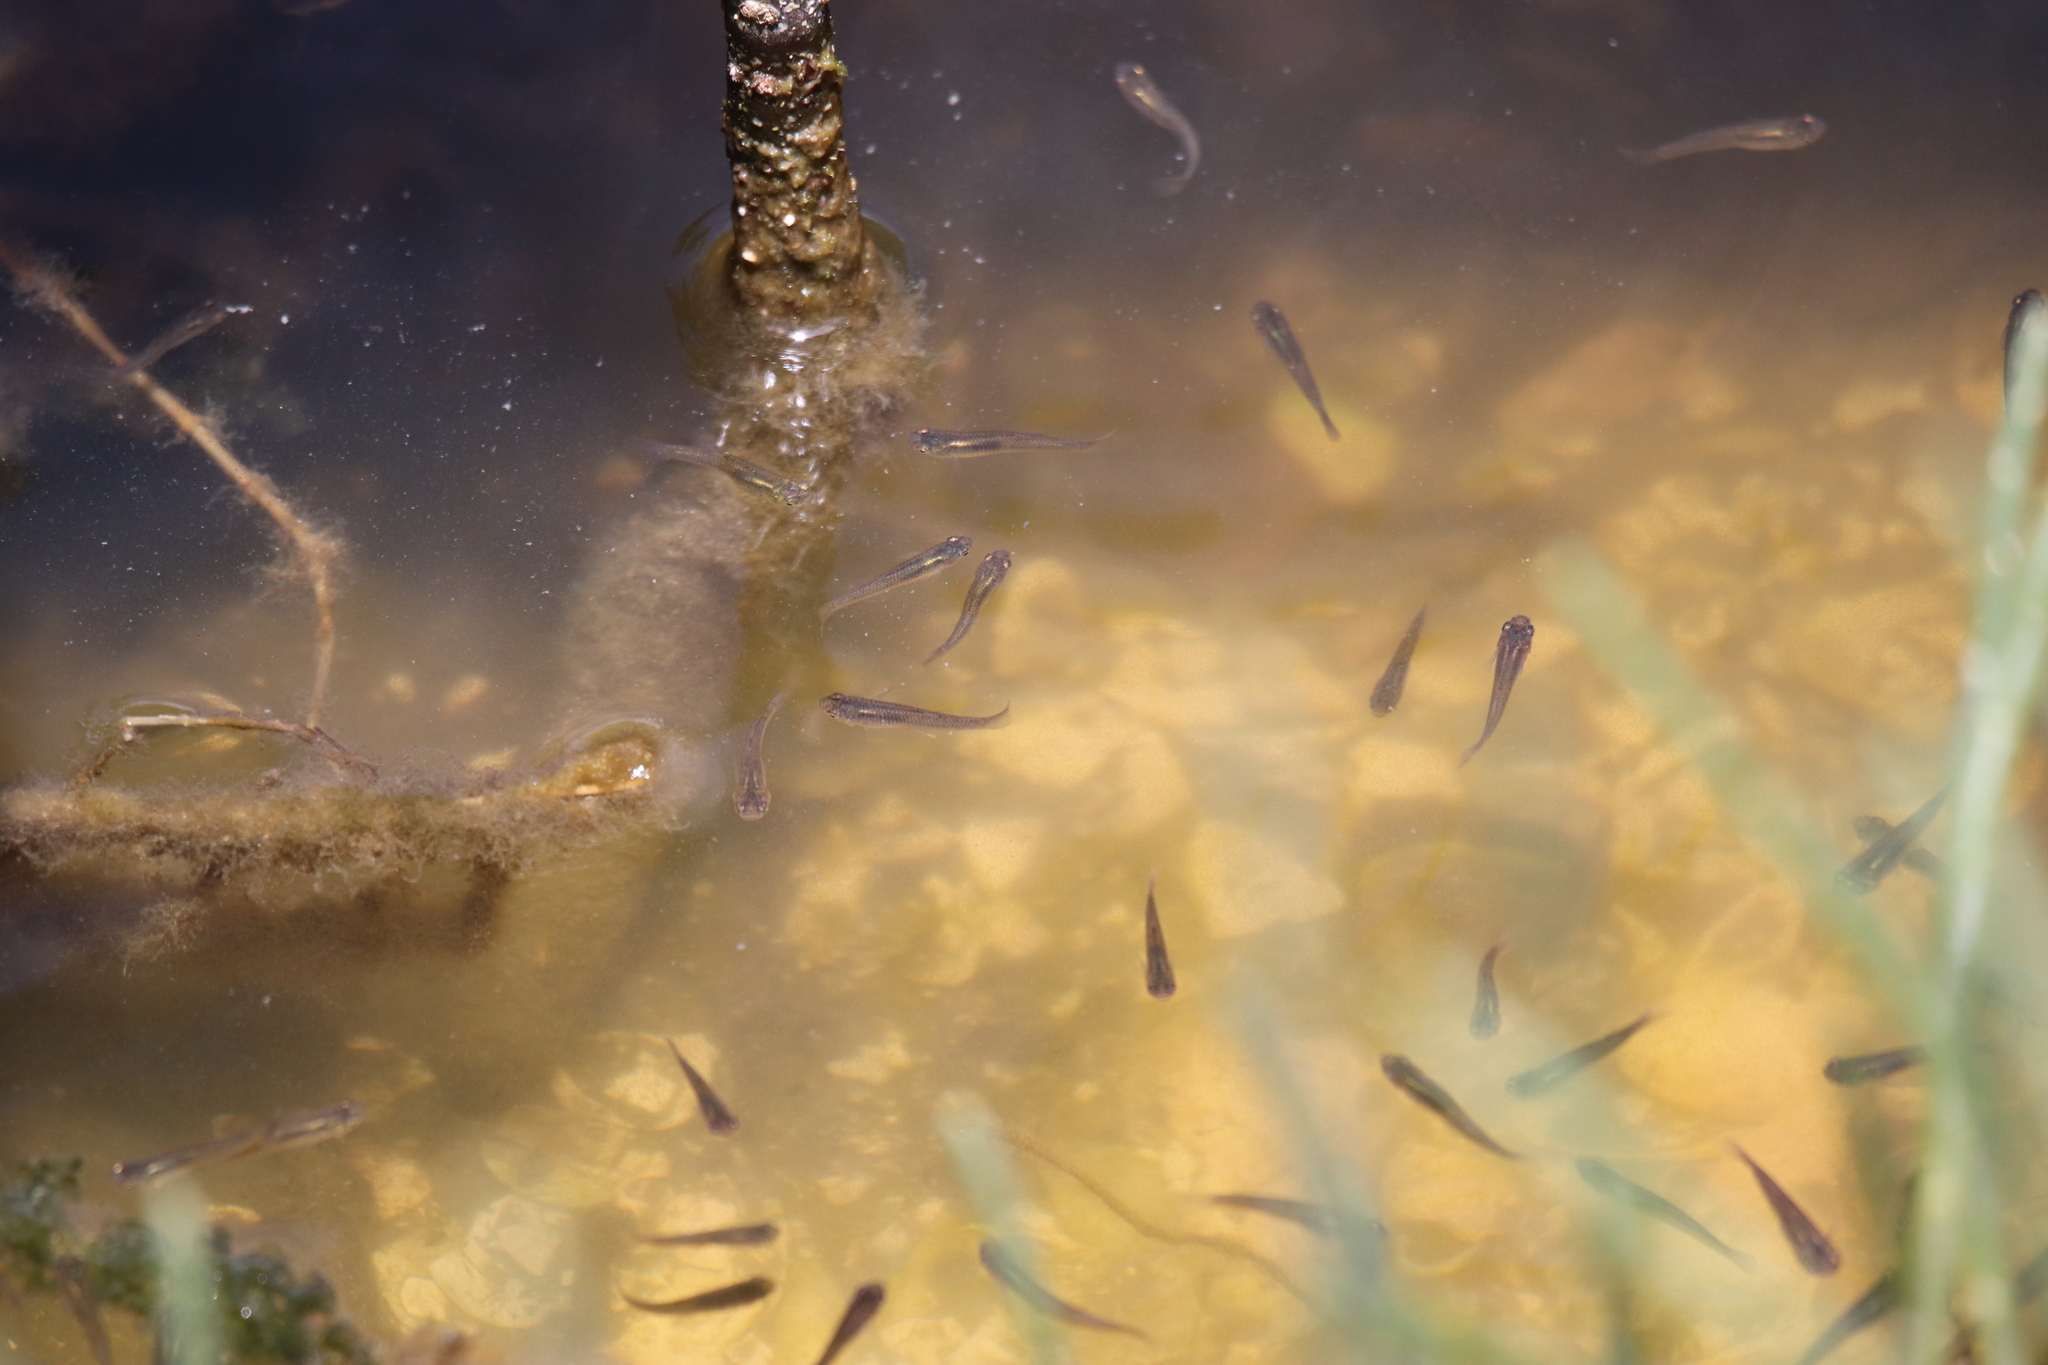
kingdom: Animalia
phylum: Chordata
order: Cyprinodontiformes
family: Poeciliidae
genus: Gambusia
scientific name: Gambusia affinis
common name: Mosquitofish
